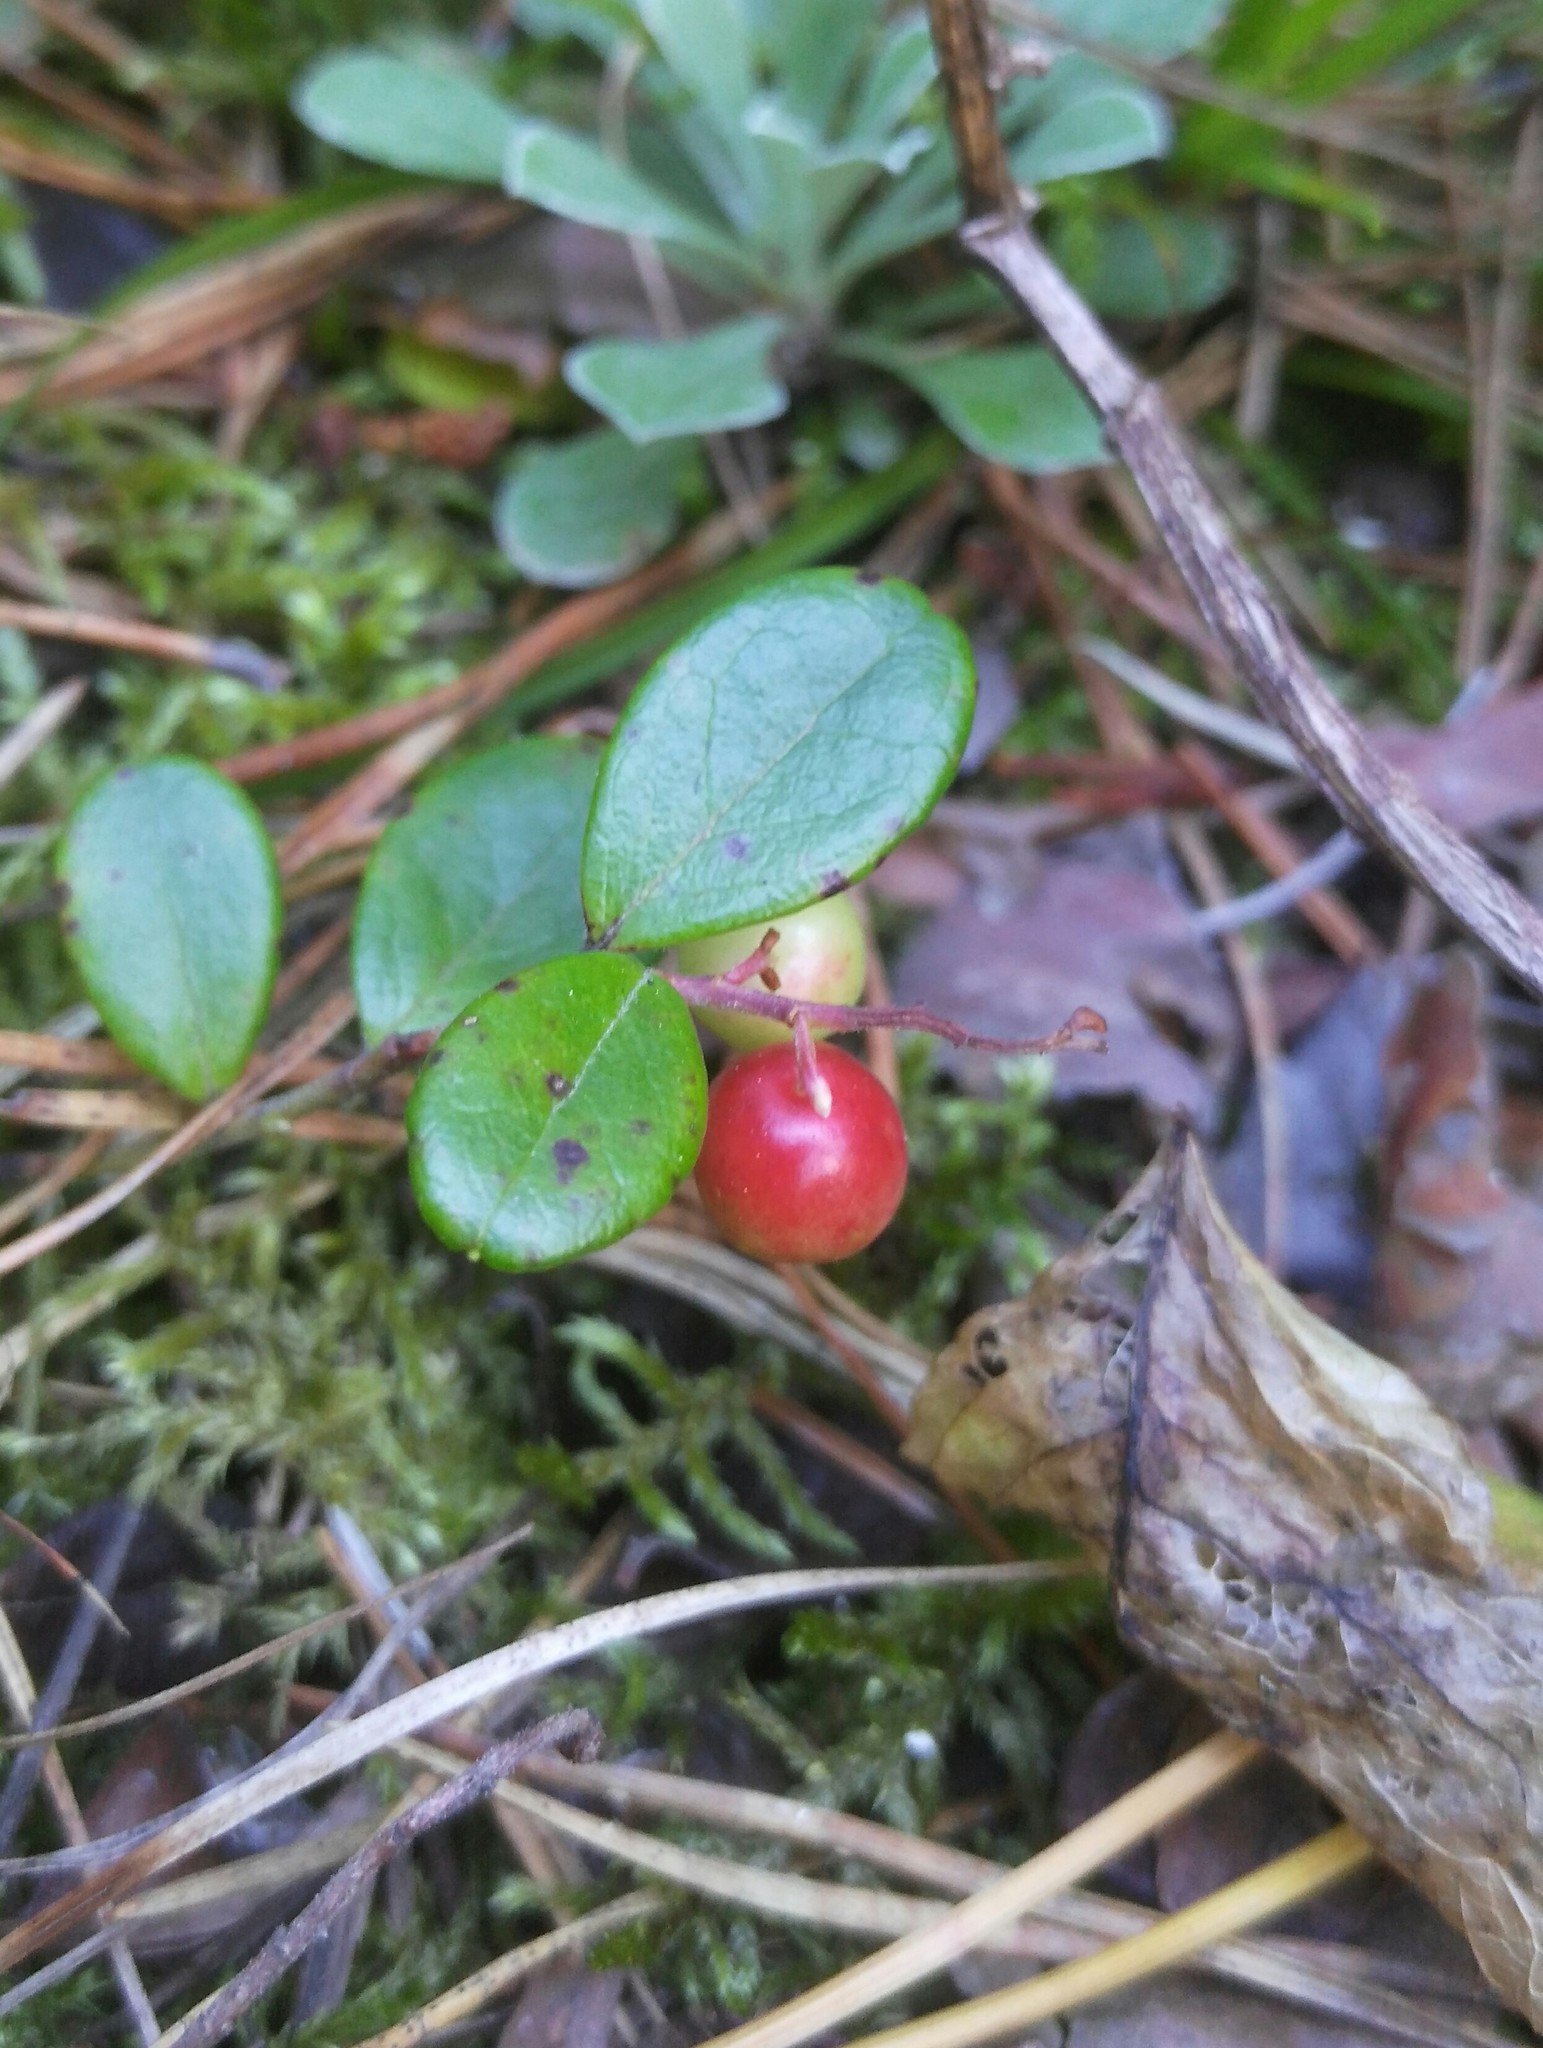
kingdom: Plantae
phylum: Tracheophyta
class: Magnoliopsida
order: Ericales
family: Ericaceae
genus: Vaccinium
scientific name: Vaccinium vitis-idaea
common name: Cowberry
